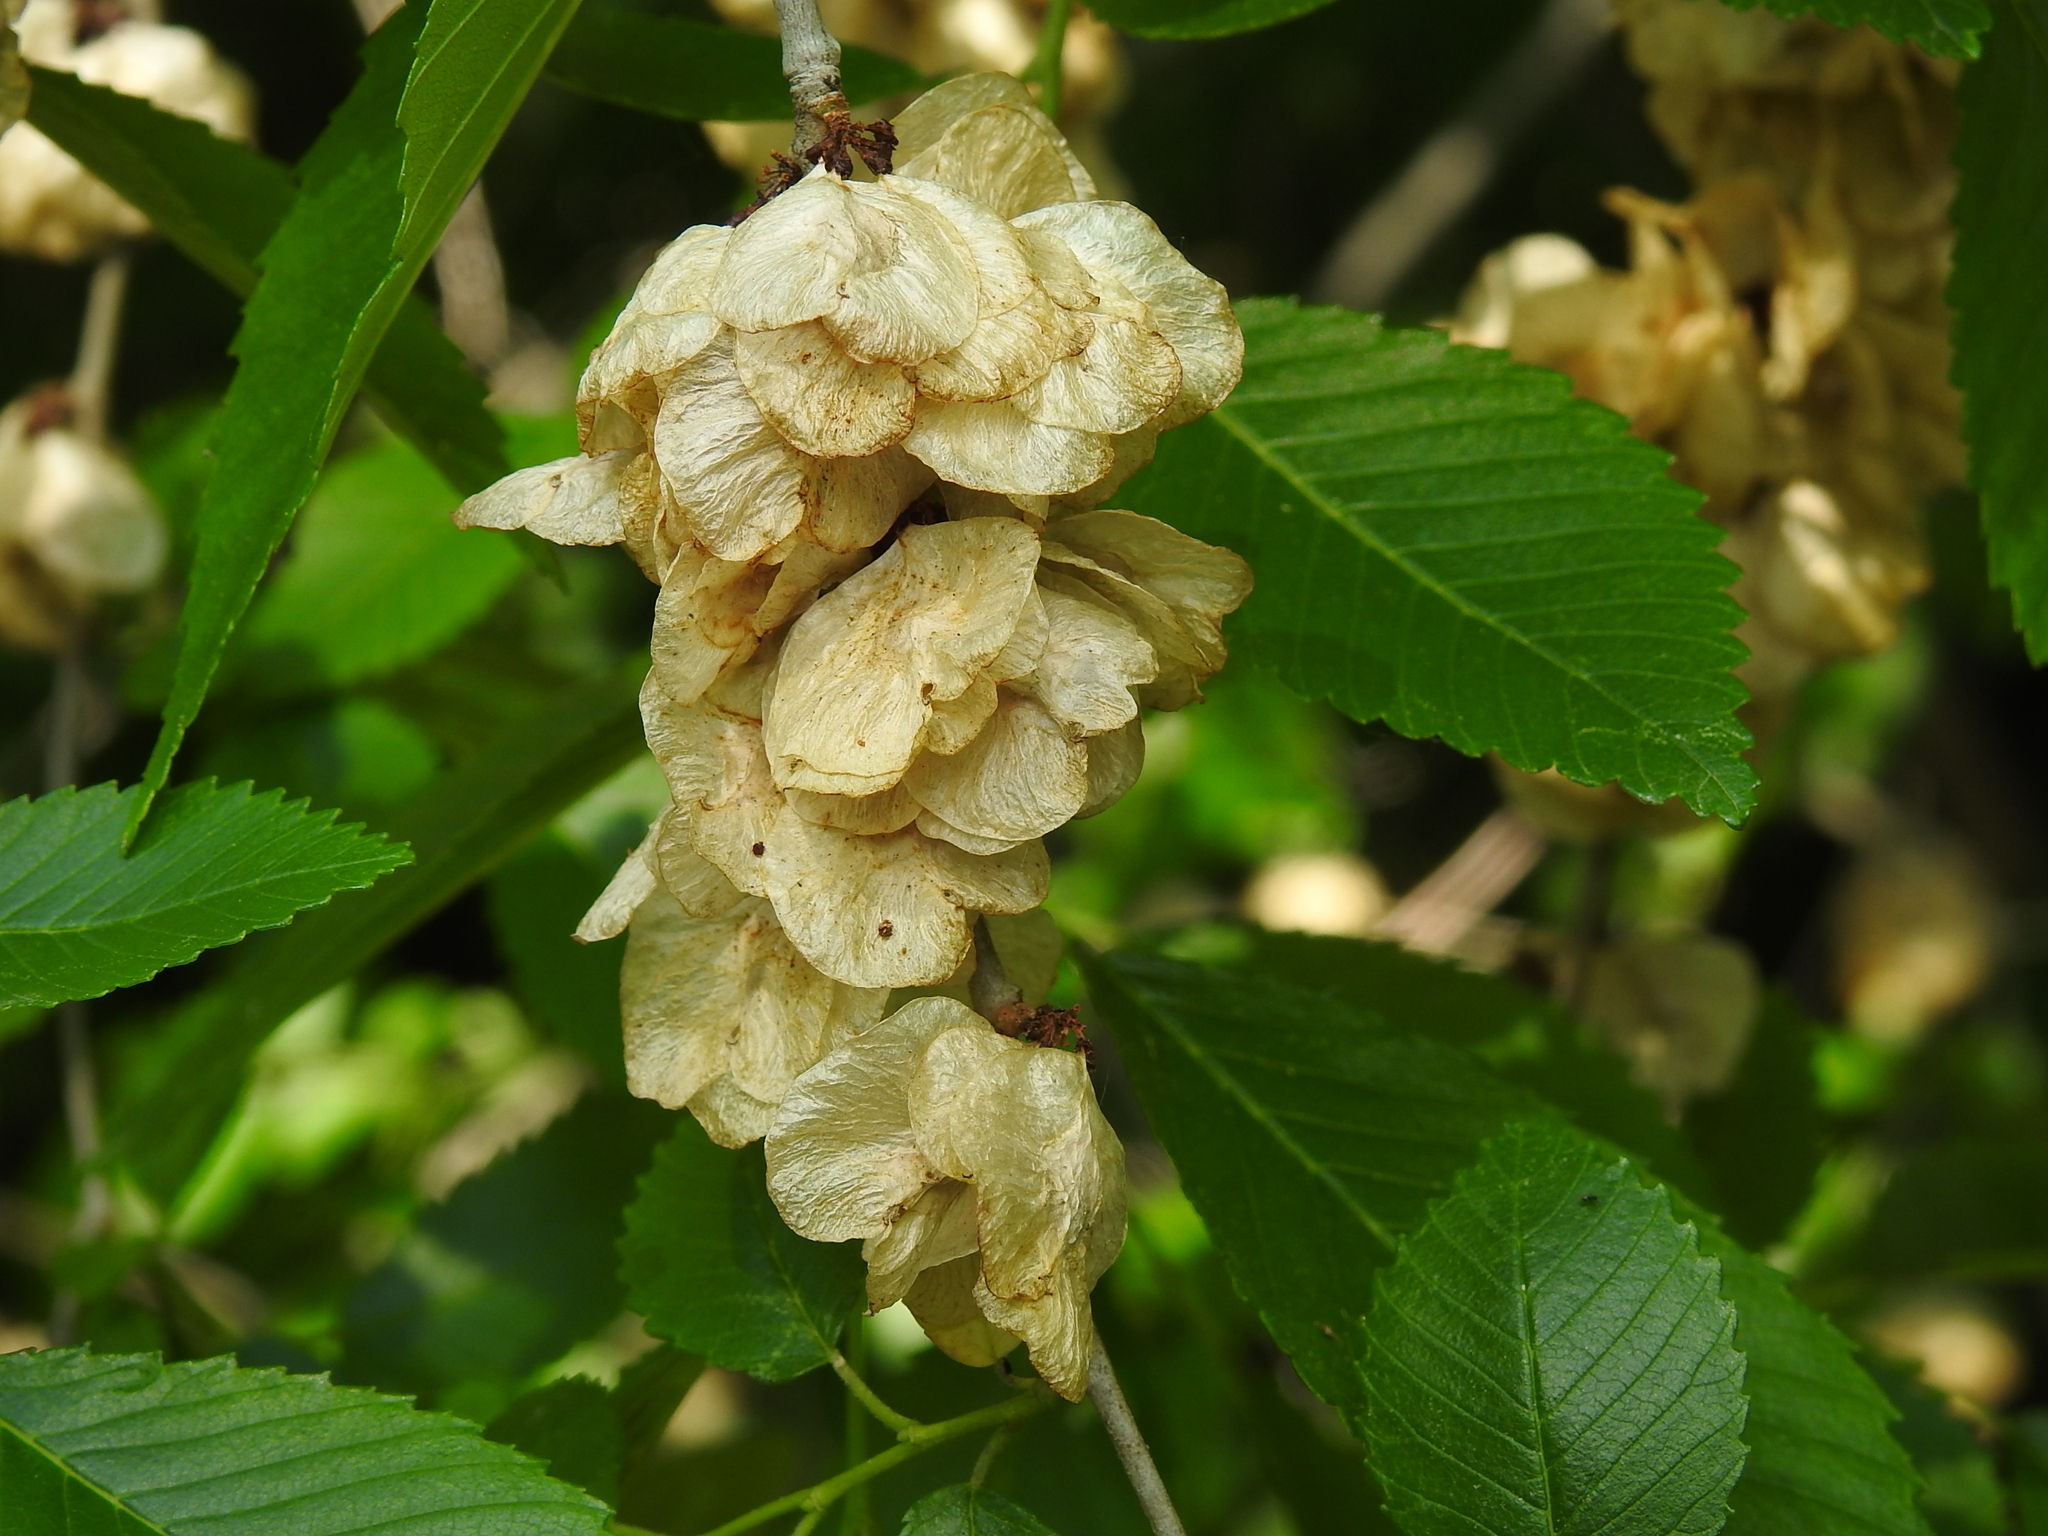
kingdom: Plantae
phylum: Tracheophyta
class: Magnoliopsida
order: Rosales
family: Ulmaceae
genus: Ulmus
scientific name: Ulmus pumila
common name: Siberian elm
